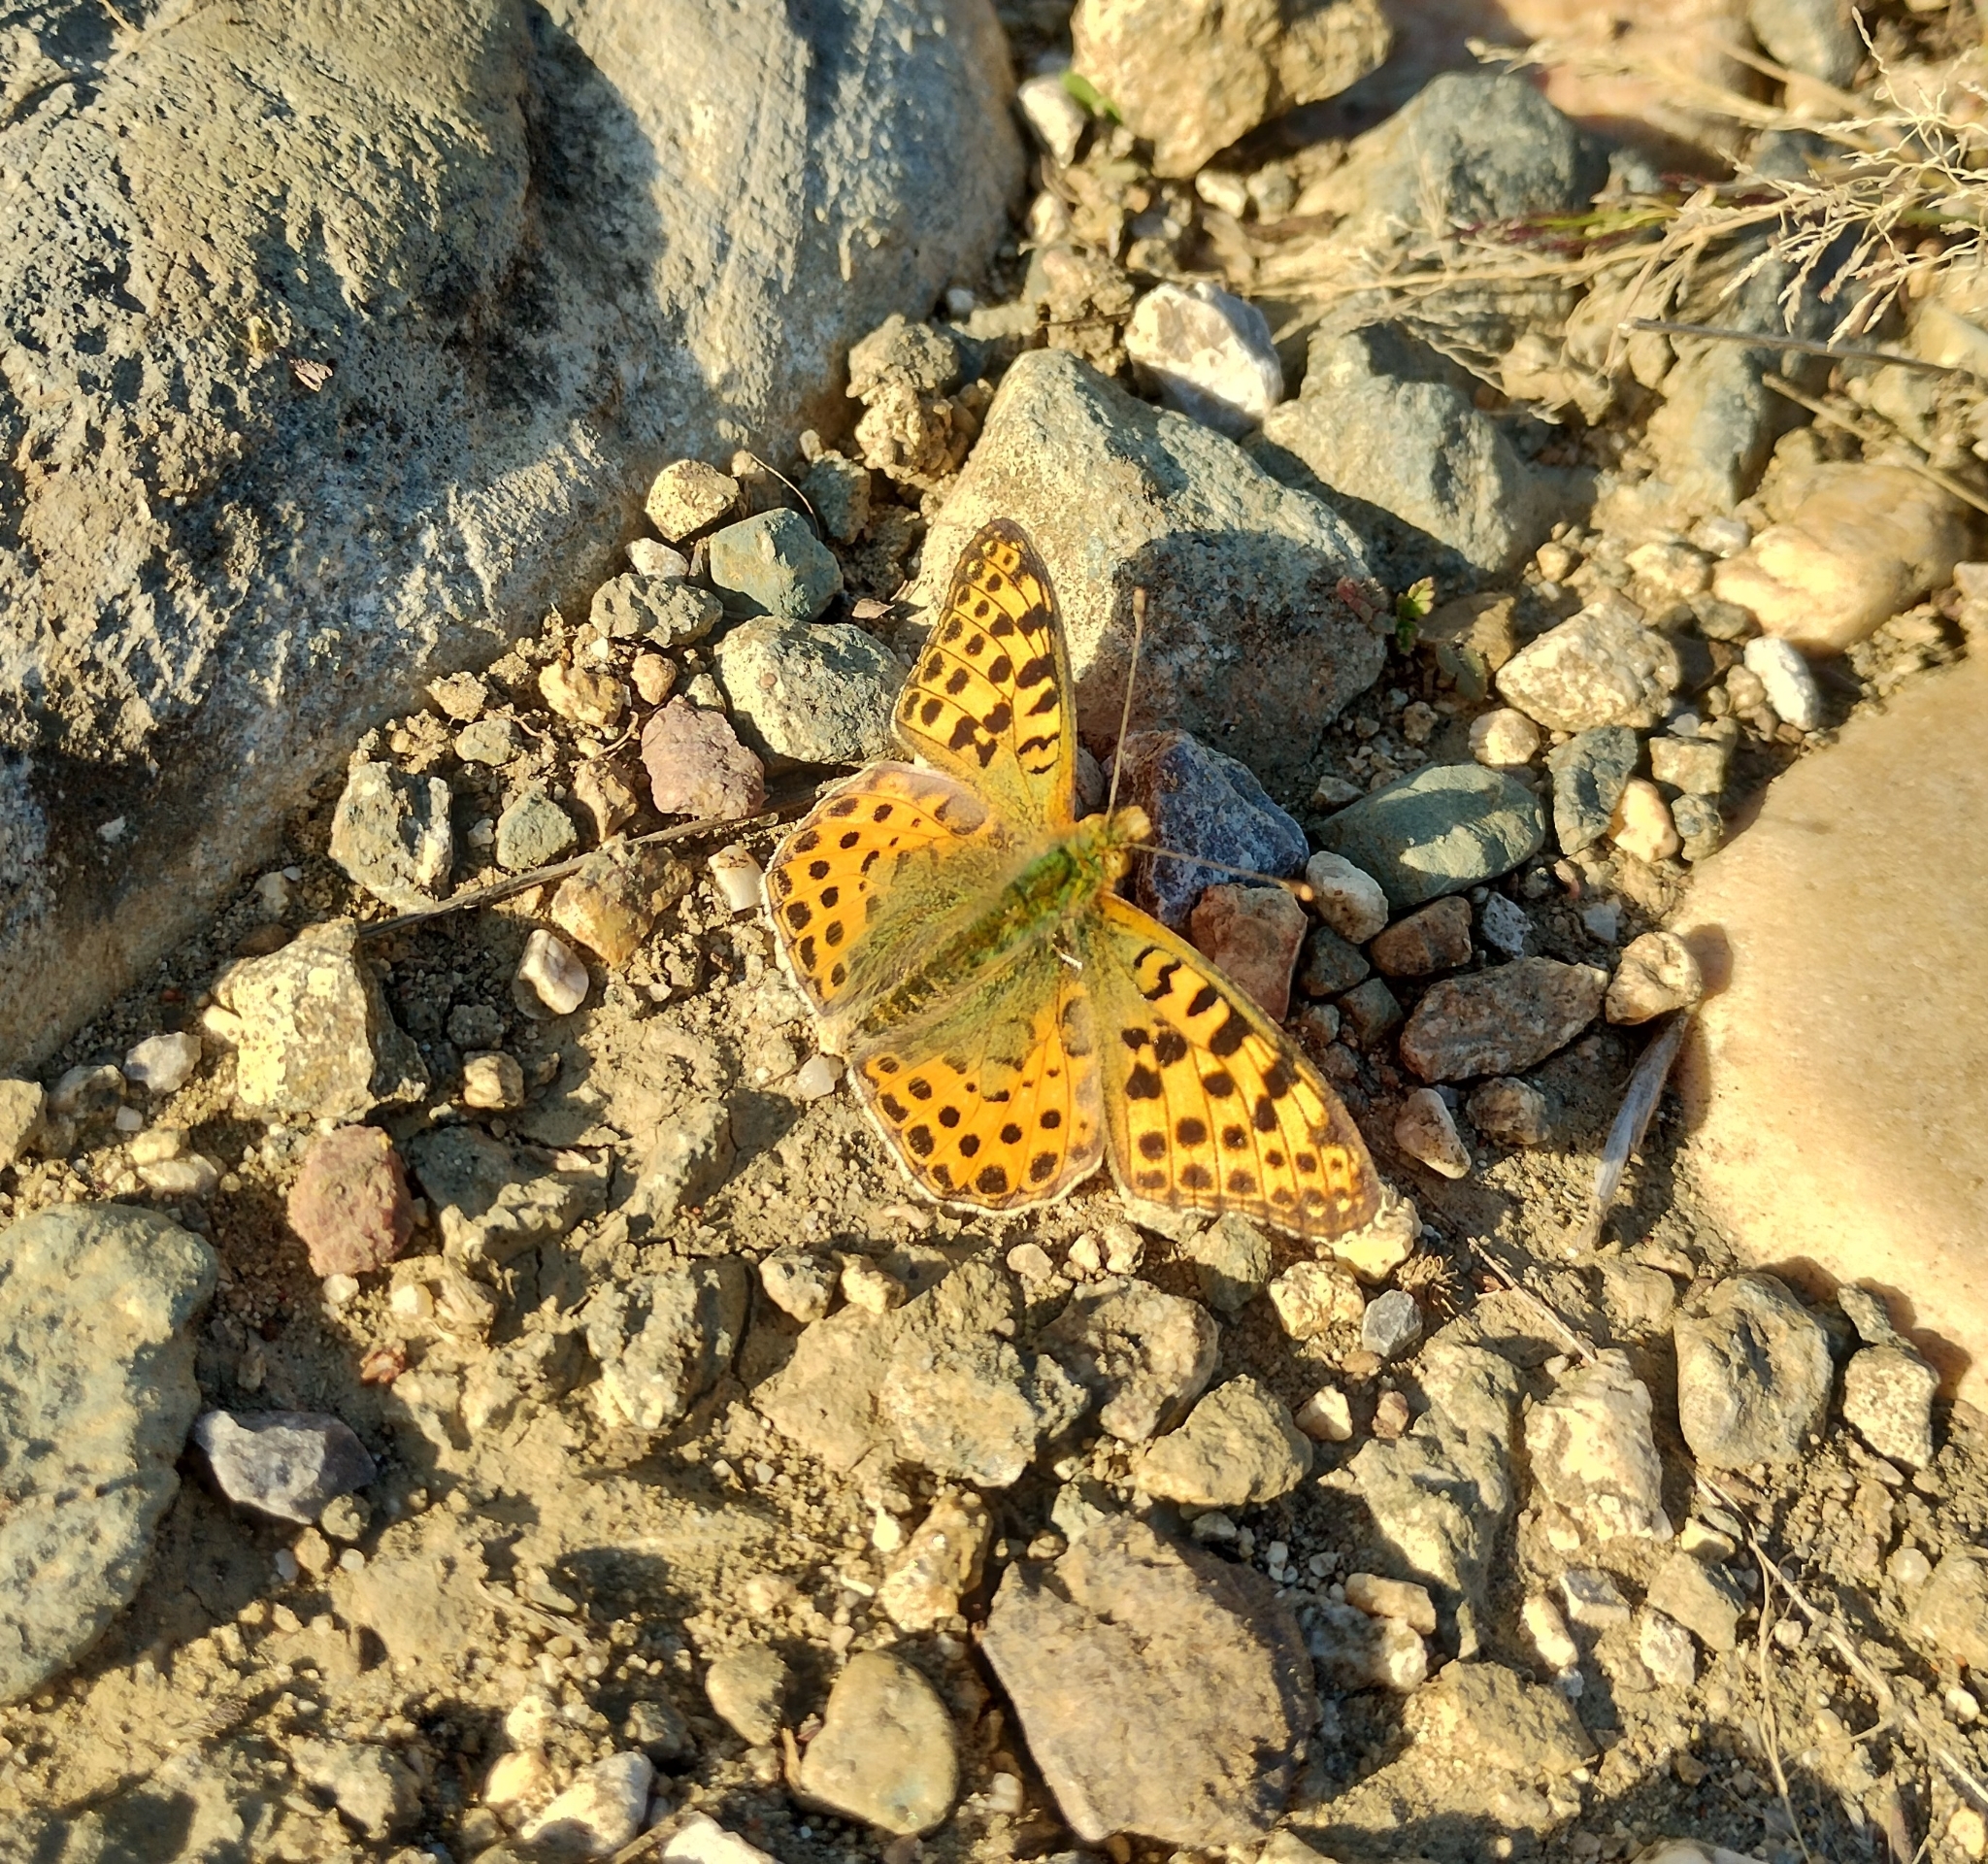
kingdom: Animalia
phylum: Arthropoda
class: Insecta
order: Lepidoptera
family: Nymphalidae
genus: Issoria
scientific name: Issoria lathonia
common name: Queen of spain fritillary
